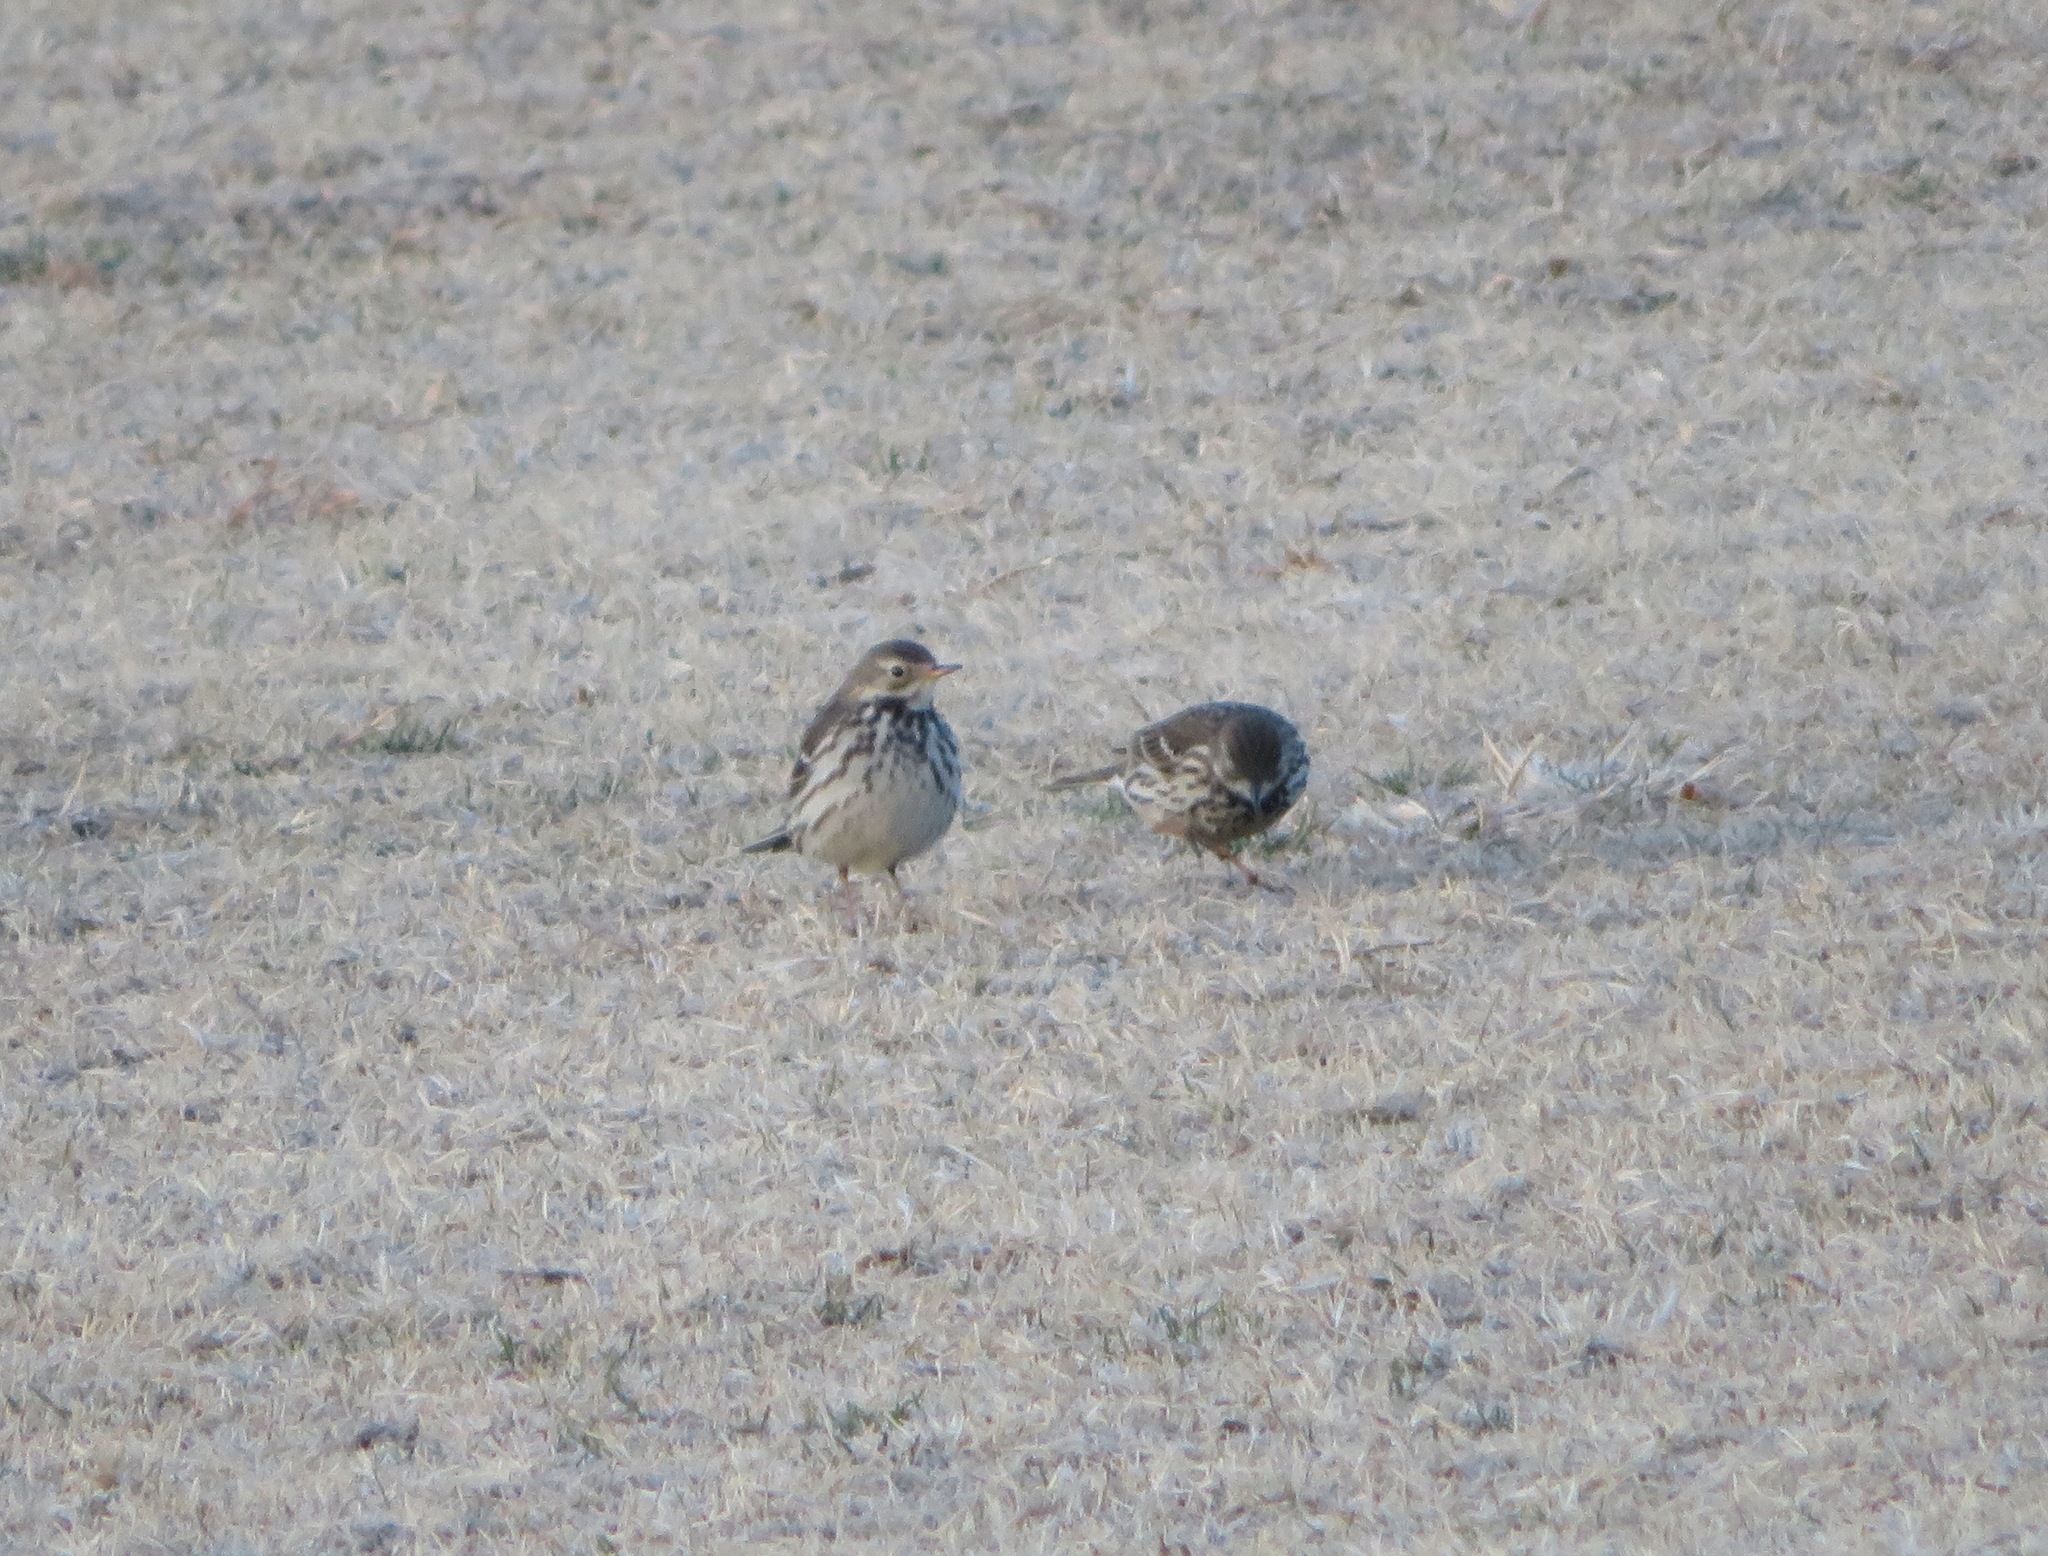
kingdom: Animalia
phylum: Chordata
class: Aves
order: Passeriformes
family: Motacillidae
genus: Anthus
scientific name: Anthus rubescens
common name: Buff-bellied pipit
